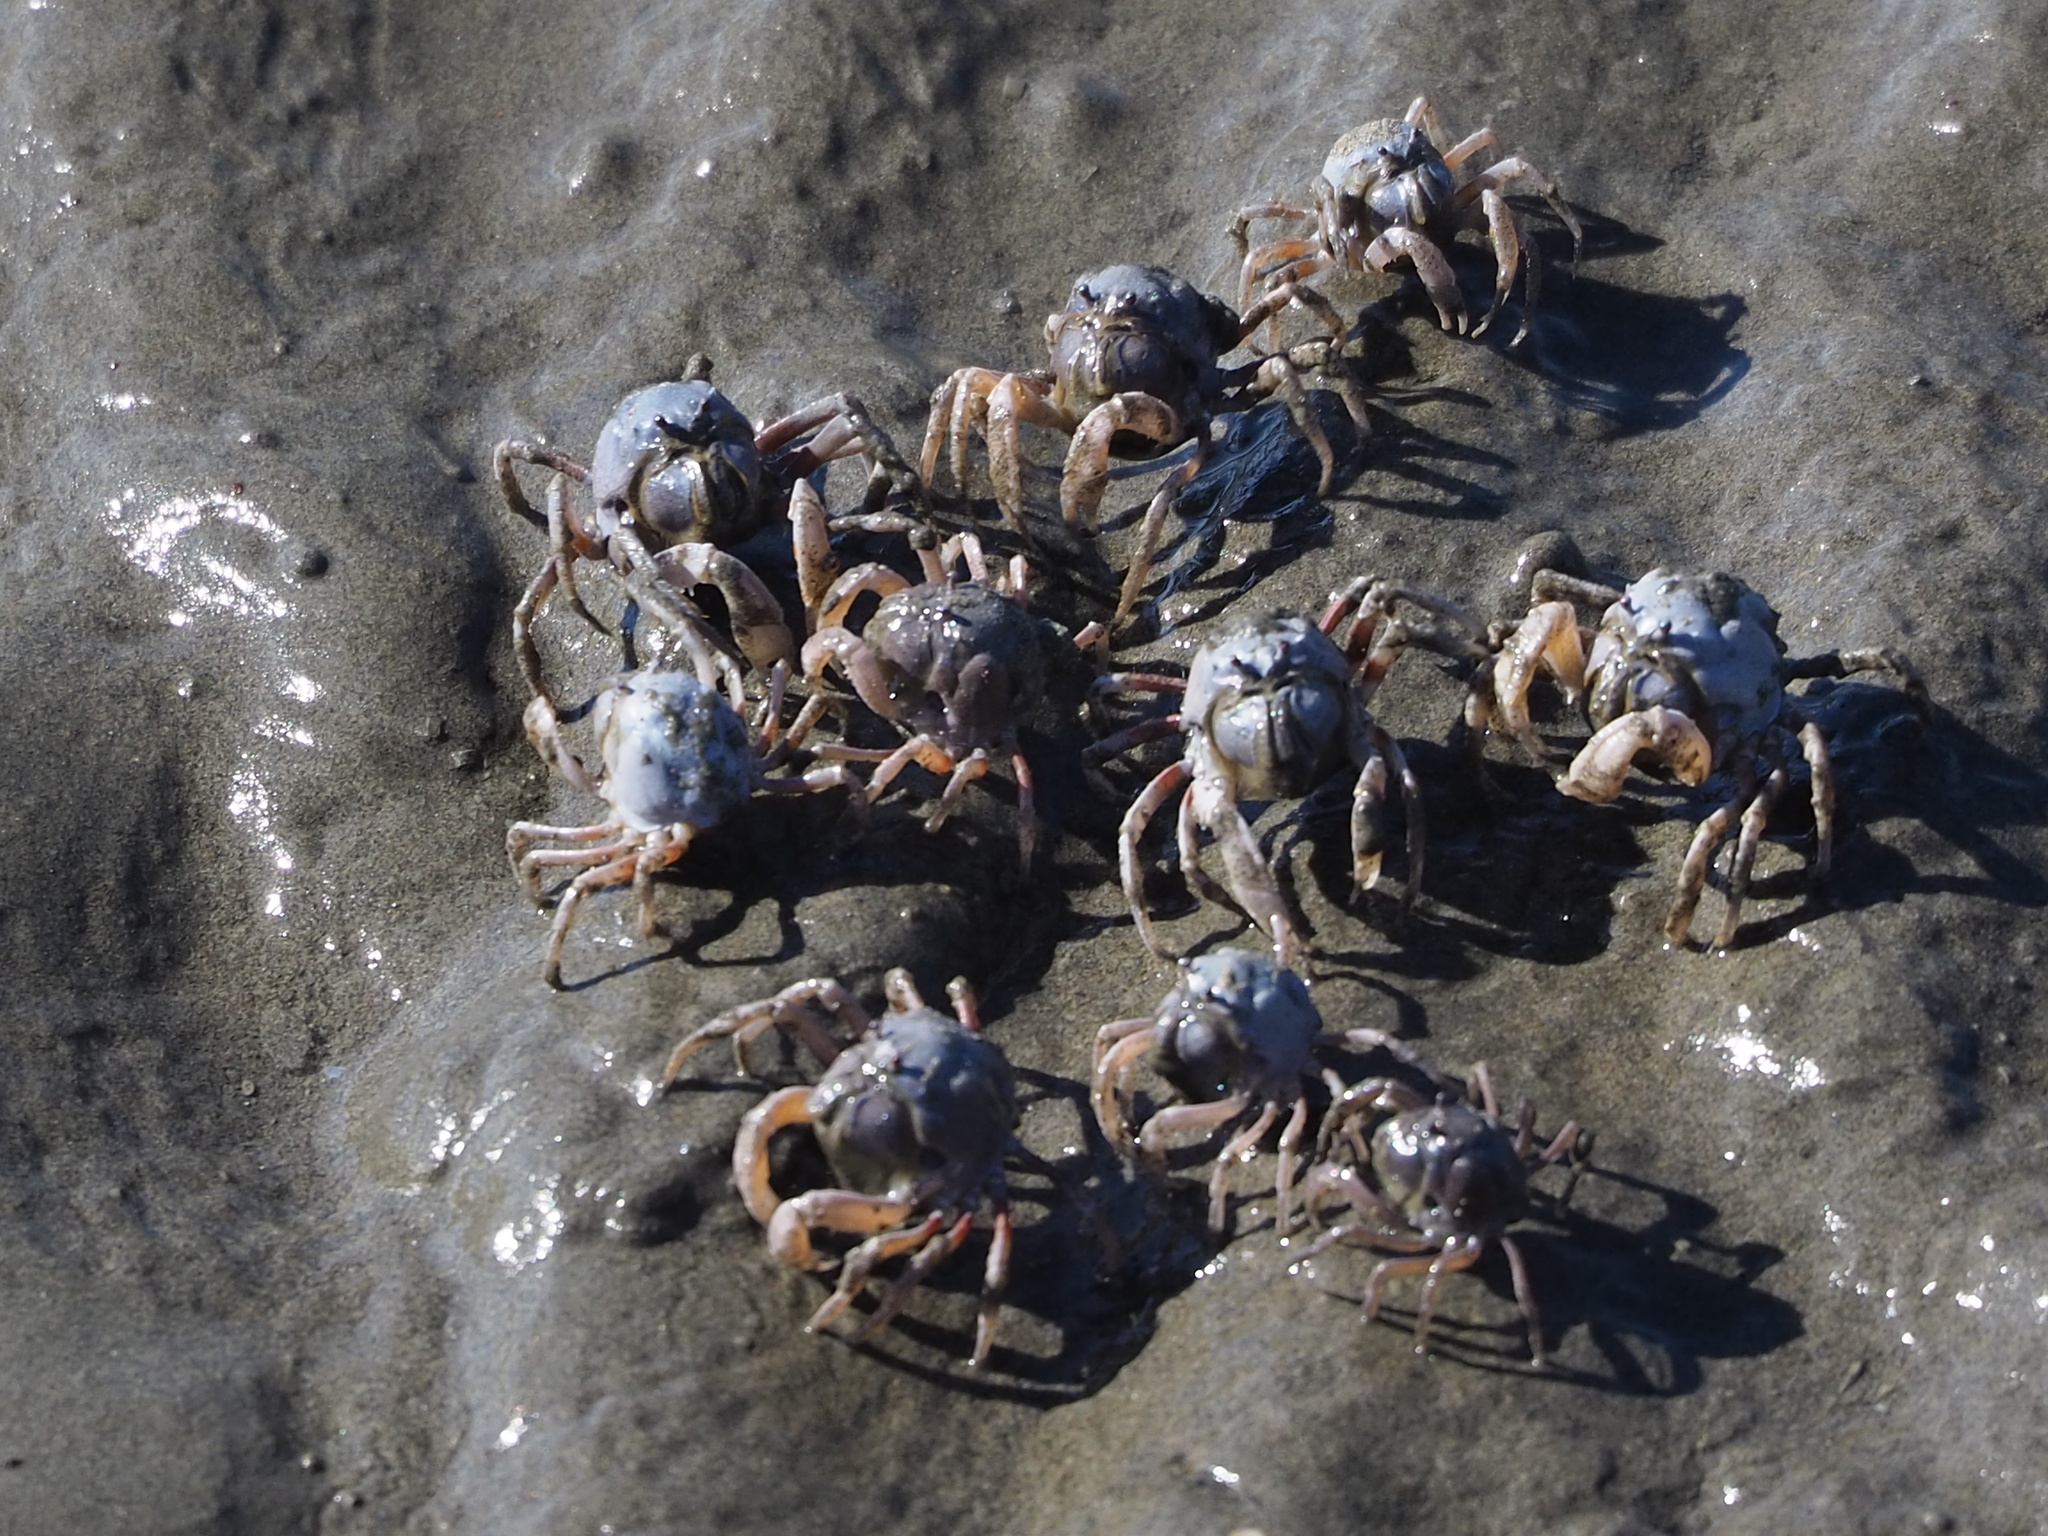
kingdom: Animalia
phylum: Arthropoda
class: Malacostraca
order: Decapoda
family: Mictyridae
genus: Mictyris
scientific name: Mictyris brevidactylus
